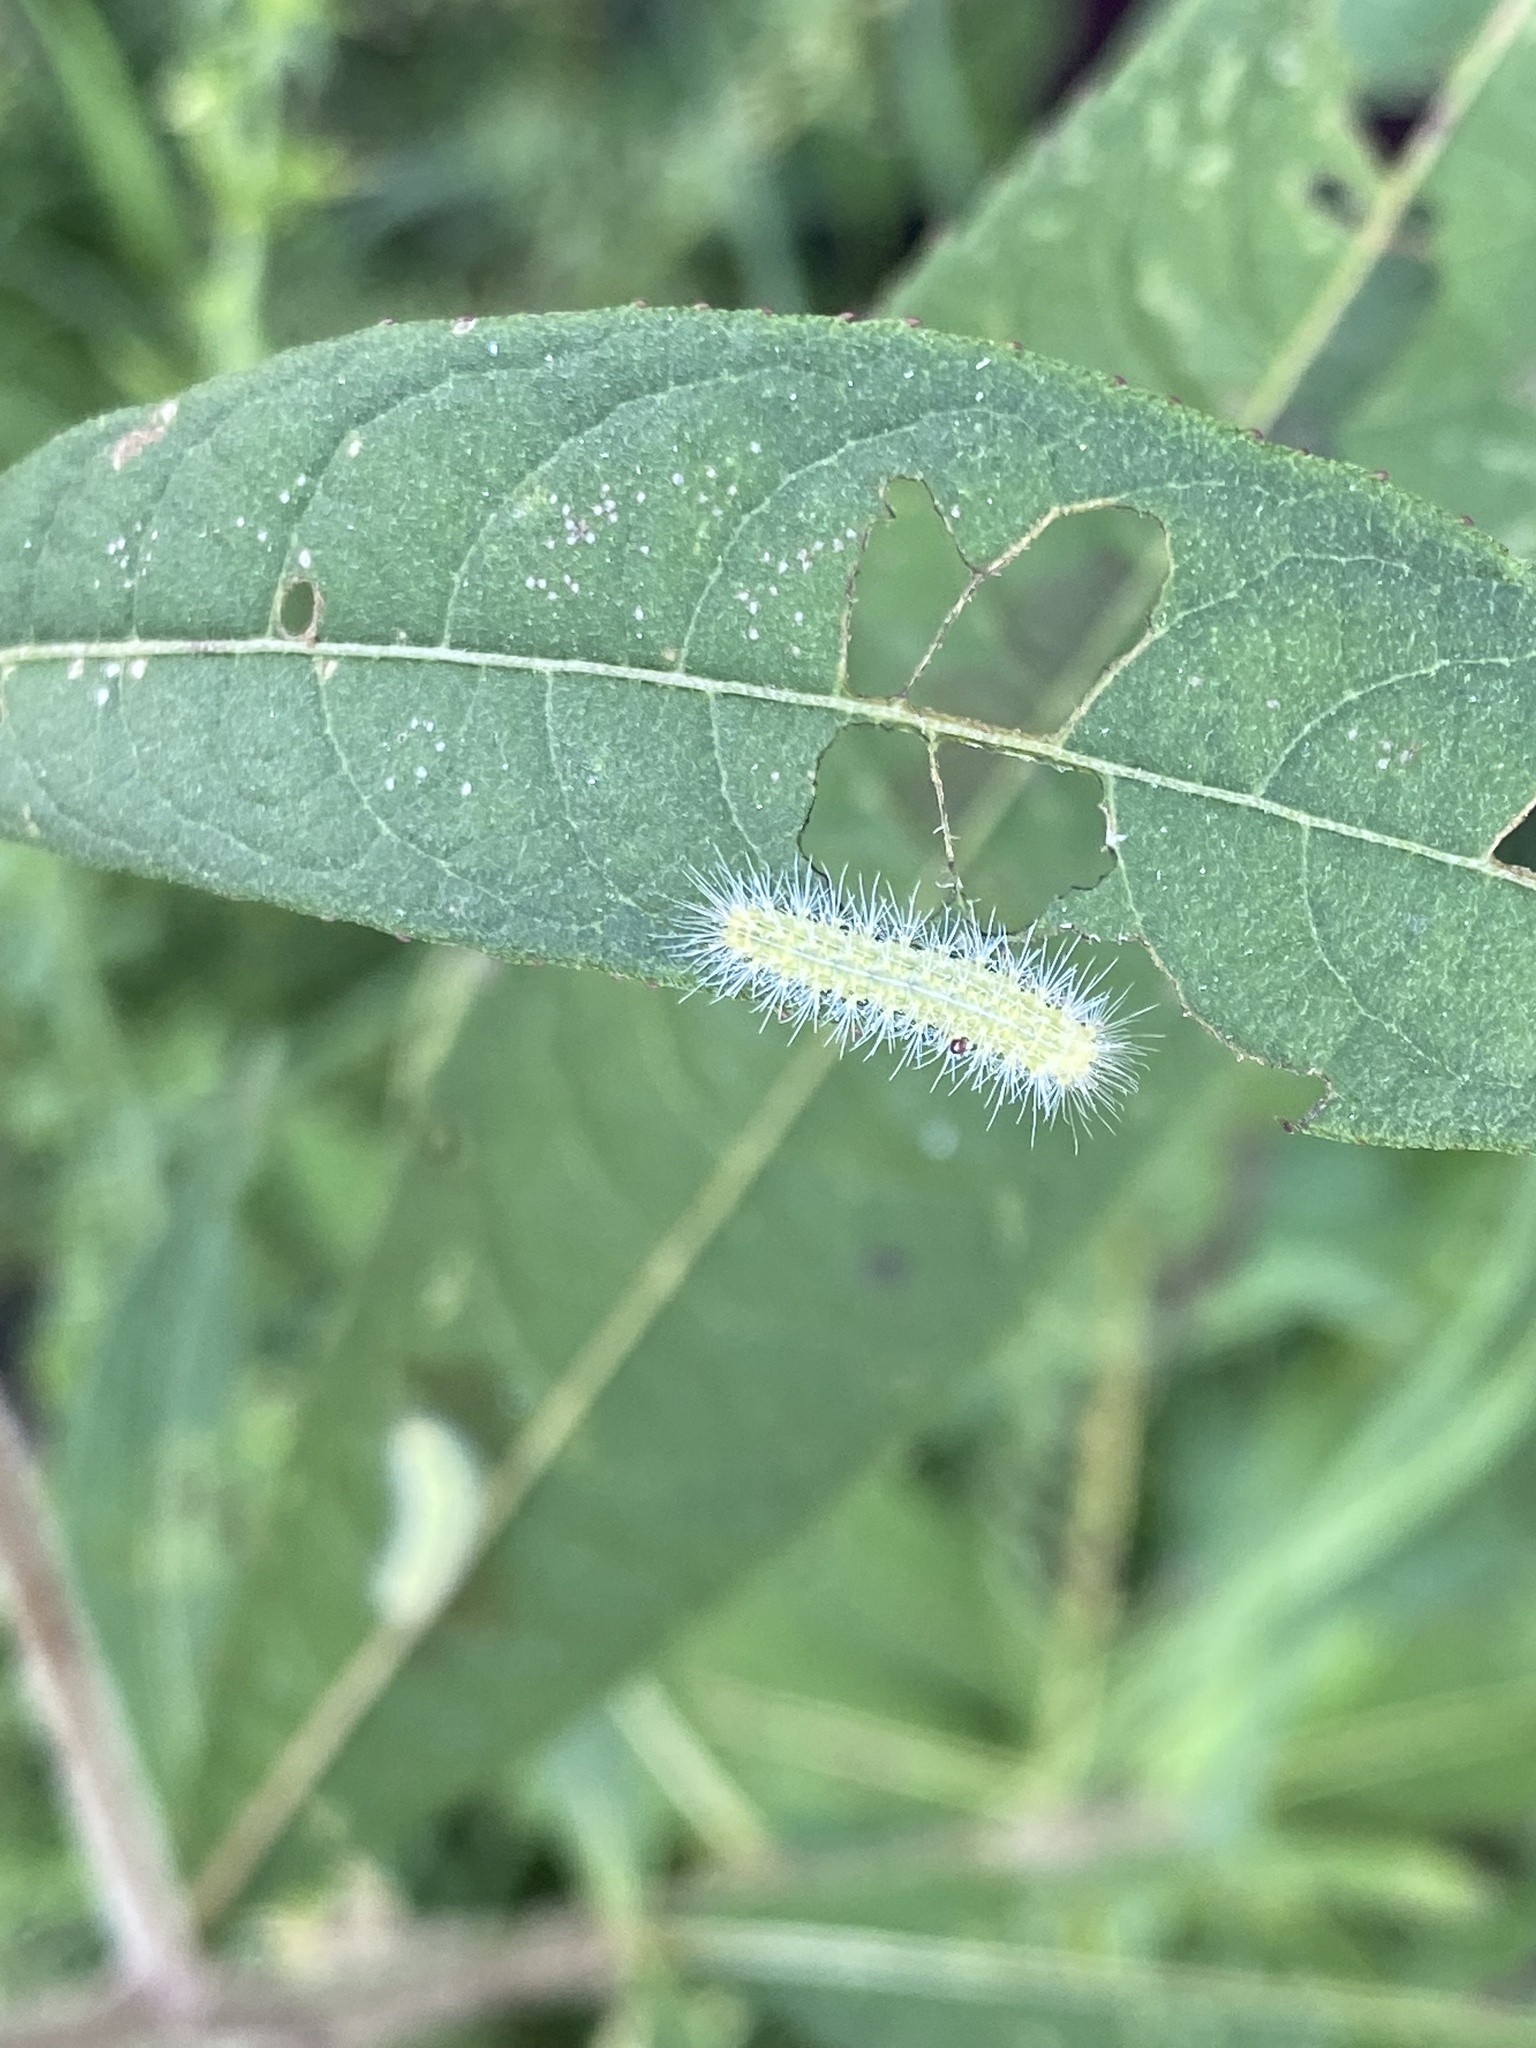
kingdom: Animalia
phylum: Arthropoda
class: Insecta
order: Lepidoptera
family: Pterophoridae
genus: Hellinsia
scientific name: Hellinsia paleaceus
